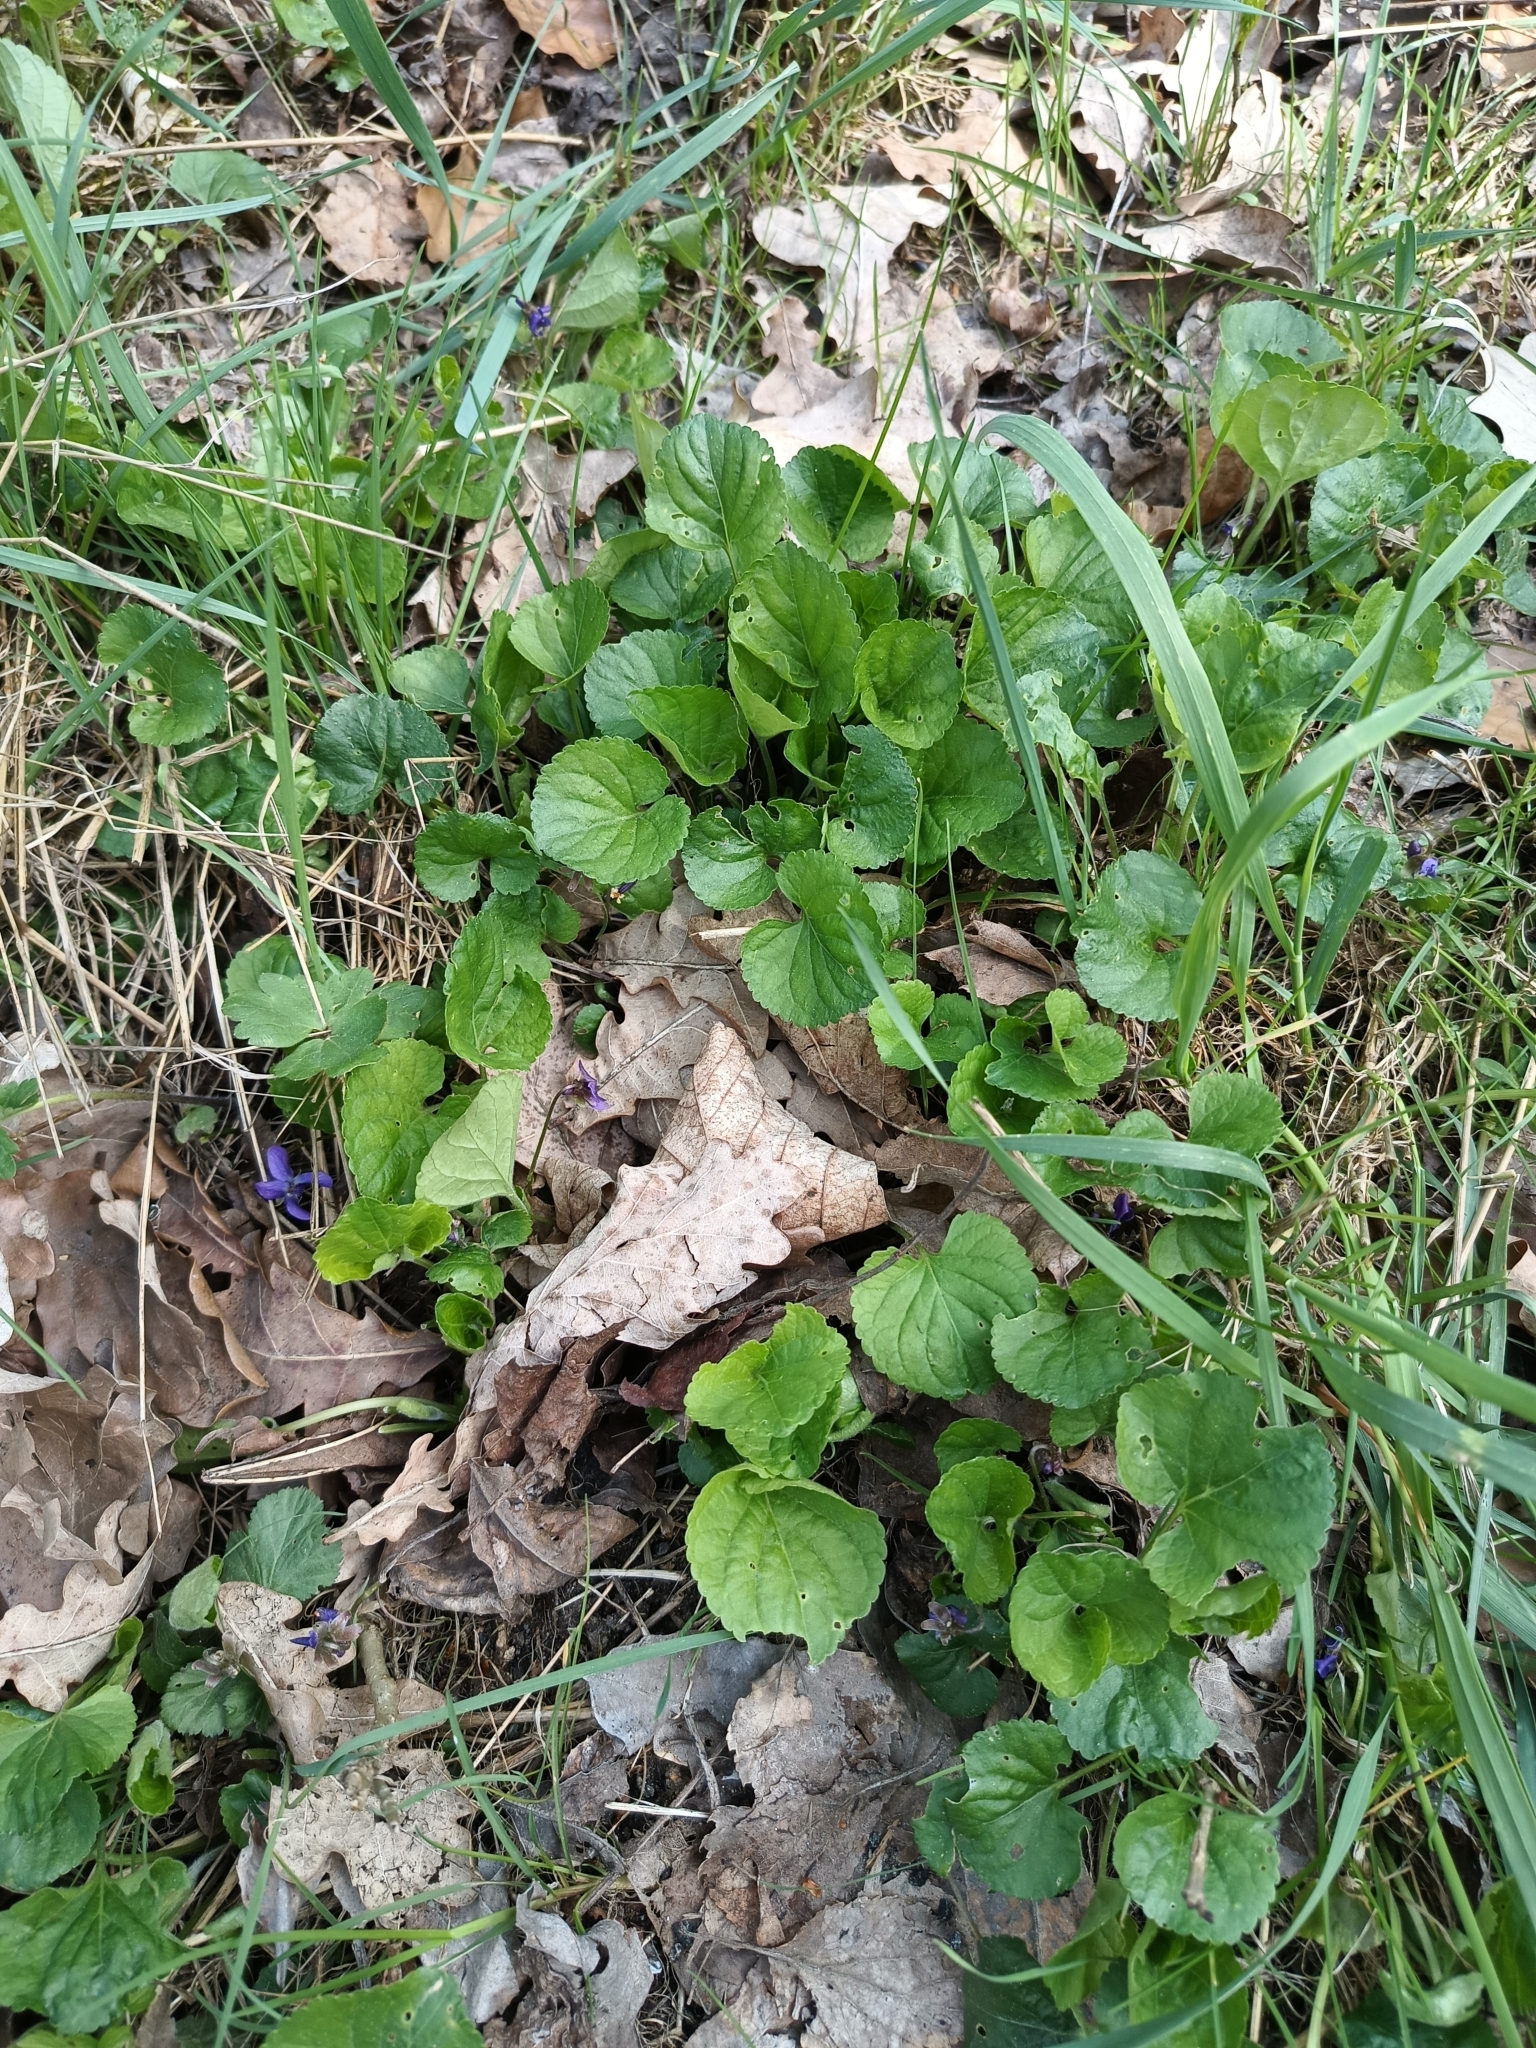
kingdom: Plantae
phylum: Tracheophyta
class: Magnoliopsida
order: Malpighiales
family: Violaceae
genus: Viola
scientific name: Viola odorata
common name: Sweet violet
